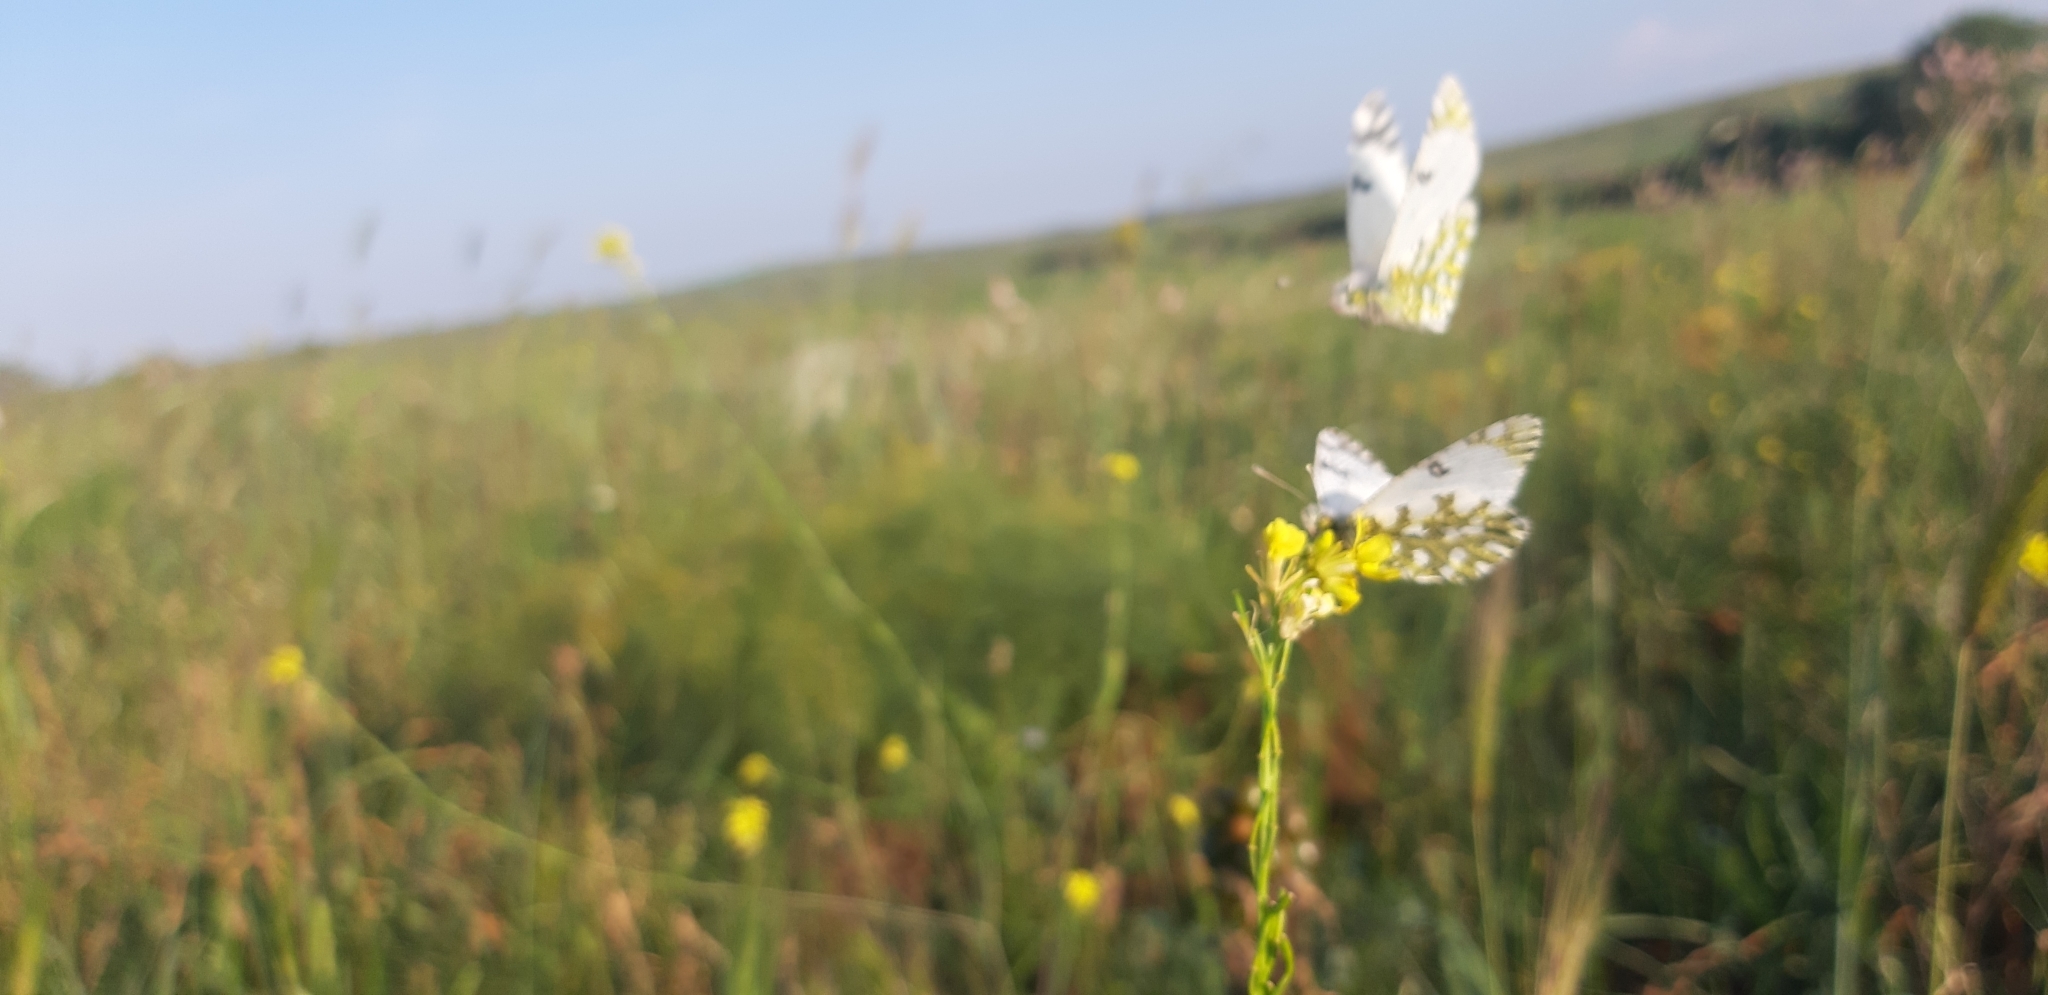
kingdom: Animalia
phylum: Arthropoda
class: Insecta
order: Lepidoptera
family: Pieridae
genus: Euchloe
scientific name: Euchloe ausonia
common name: Eastern dappled white
